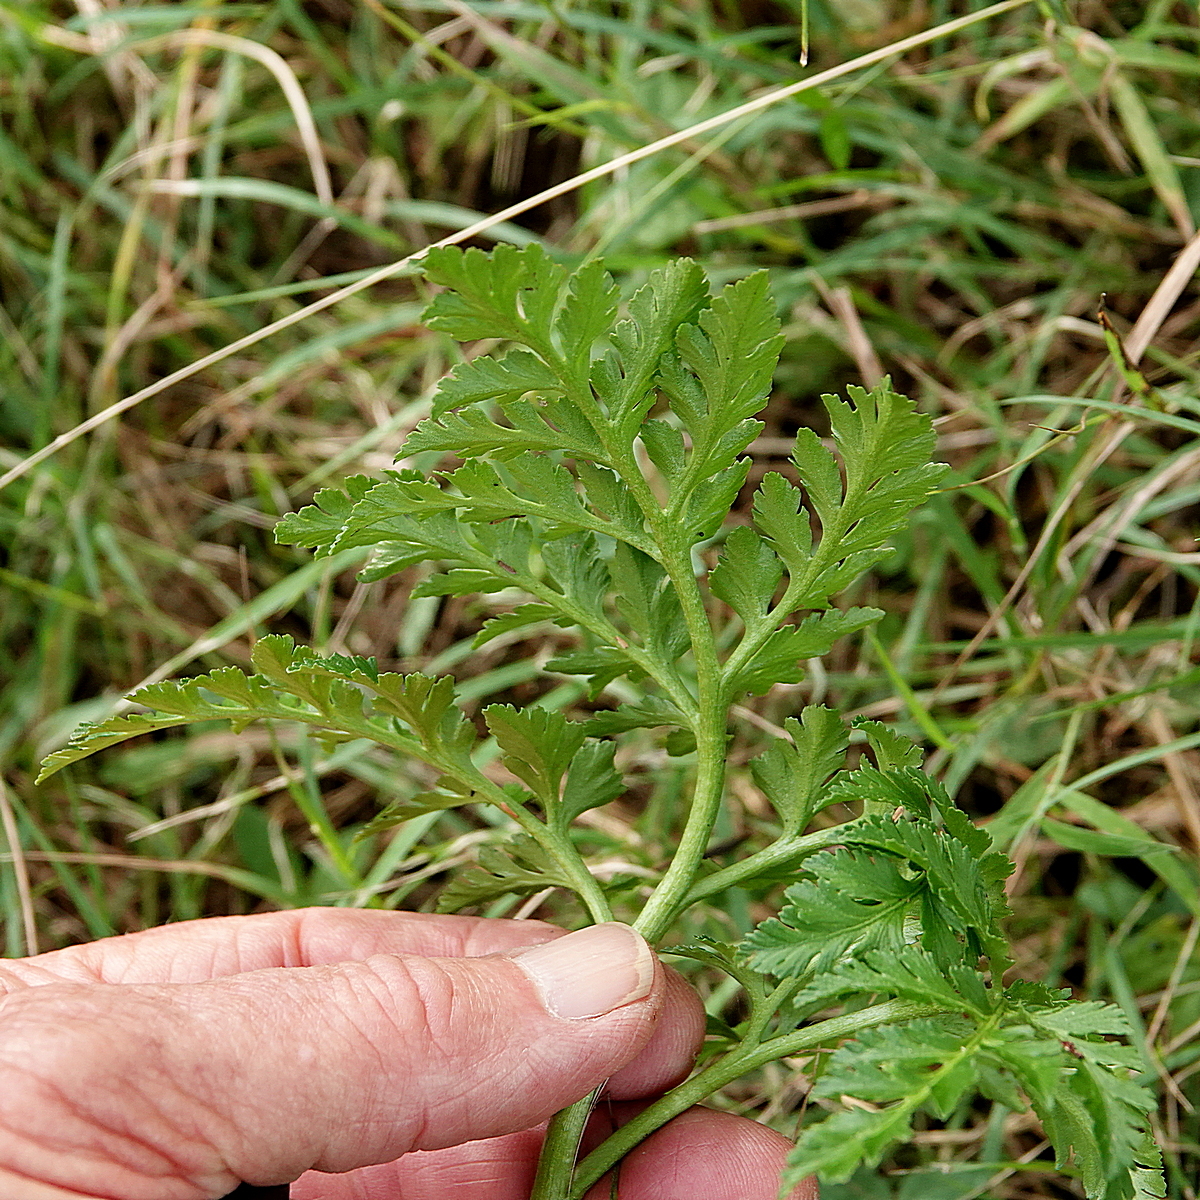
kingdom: Plantae
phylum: Tracheophyta
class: Polypodiopsida
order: Ophioglossales
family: Ophioglossaceae
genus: Sceptridium
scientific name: Sceptridium australe
